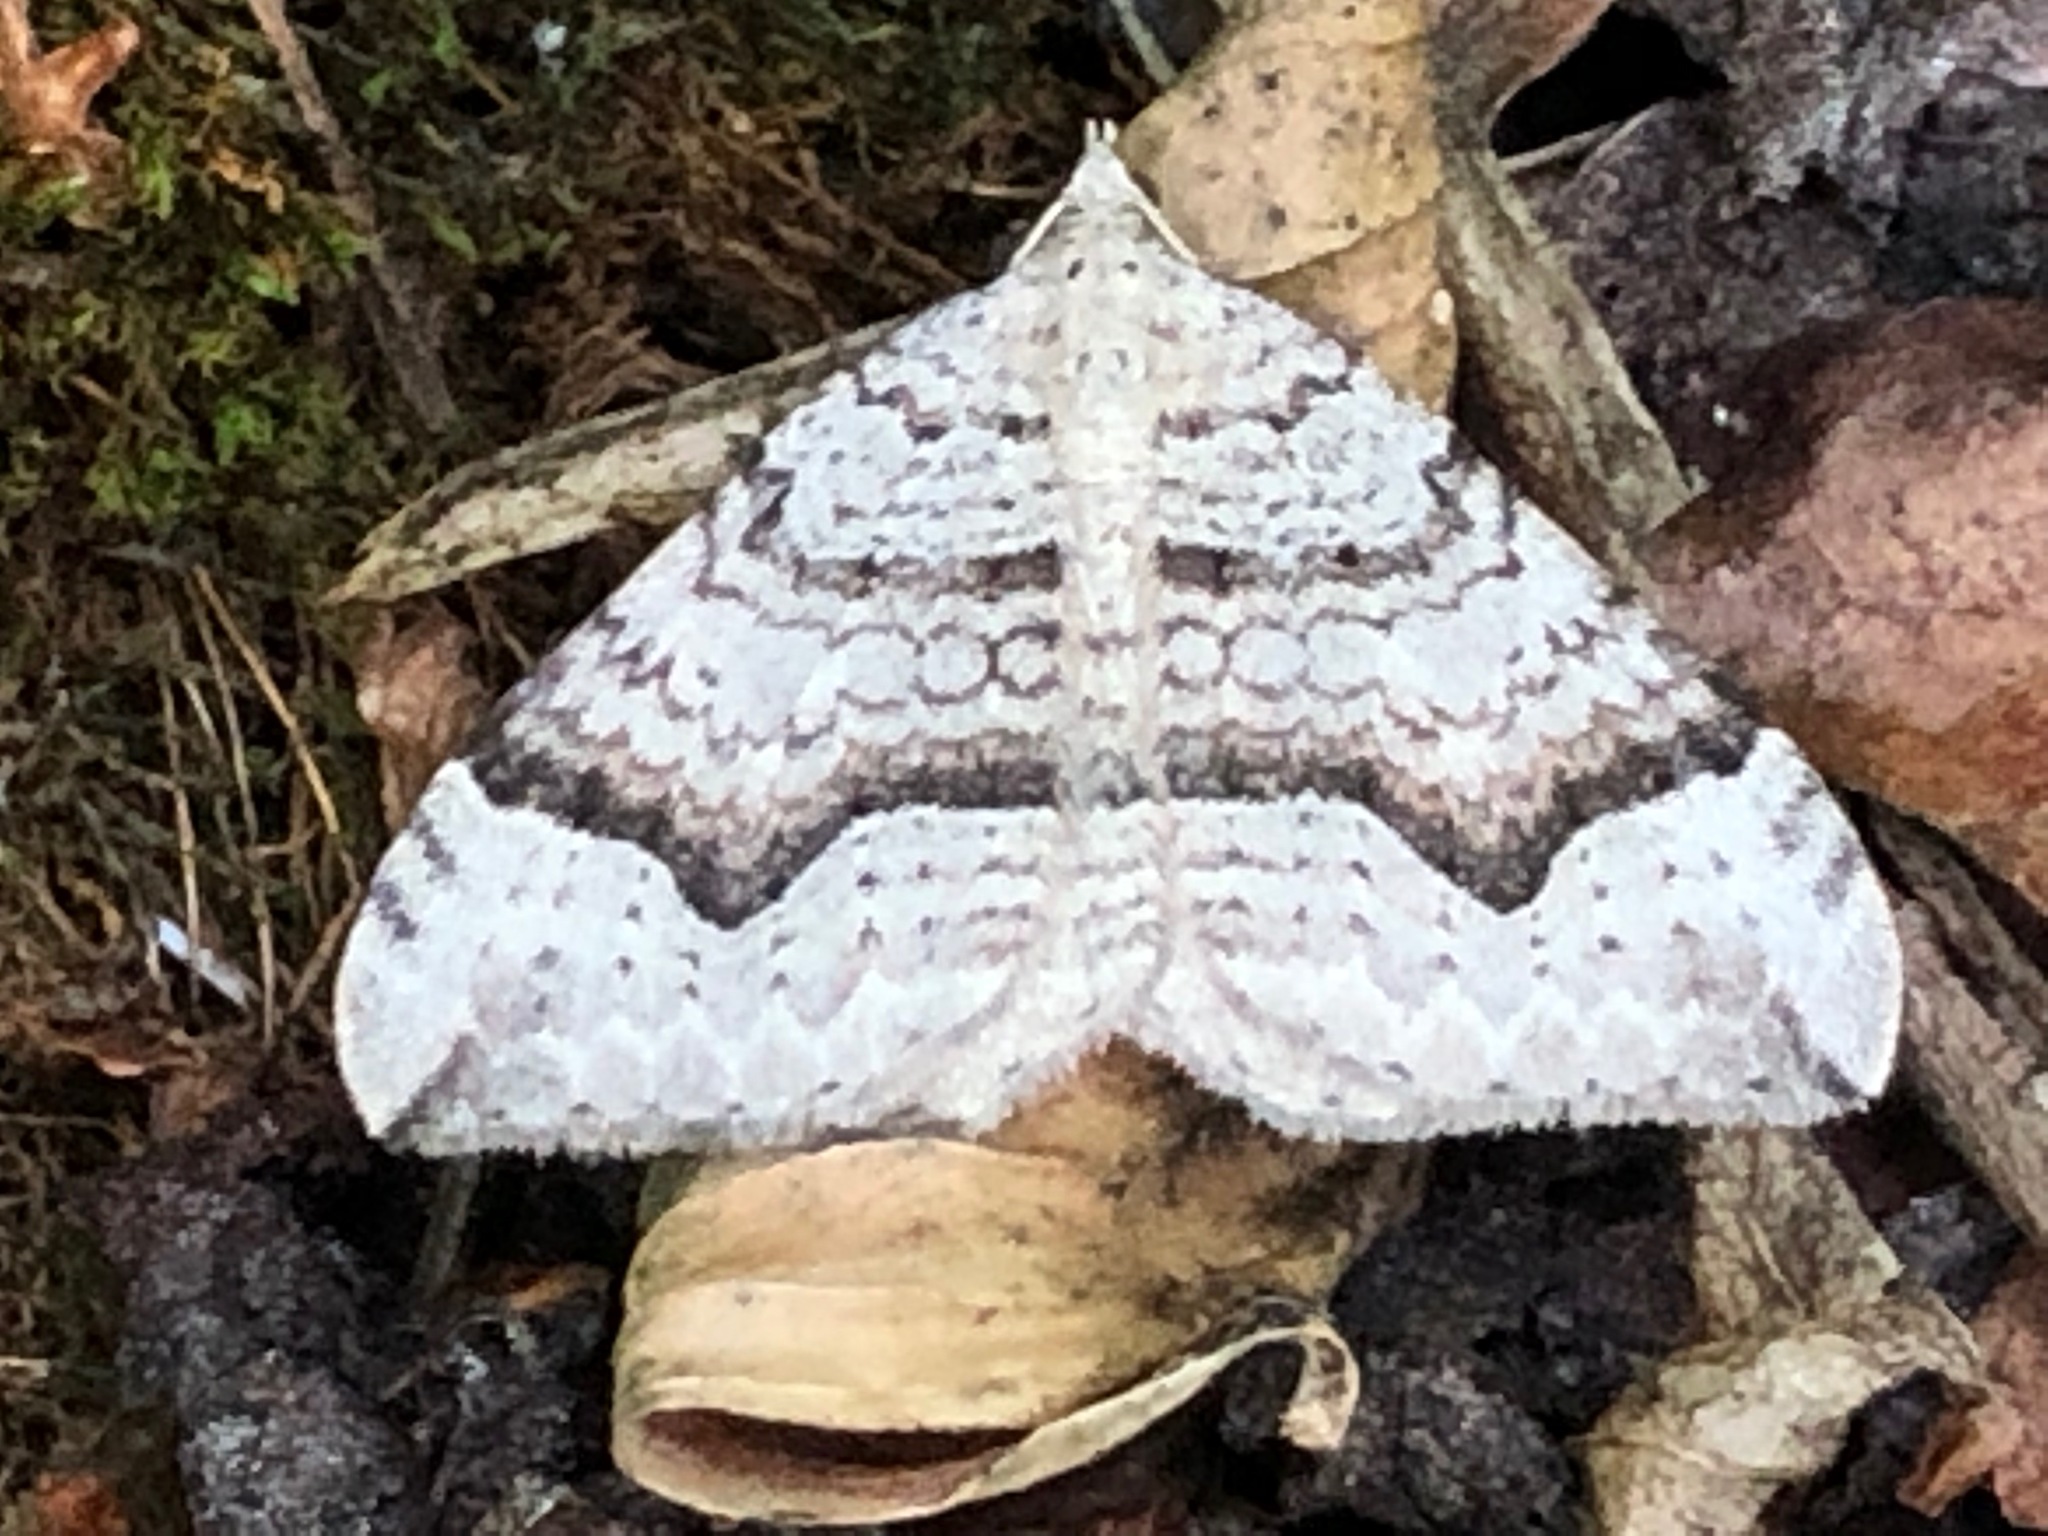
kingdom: Animalia
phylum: Arthropoda
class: Insecta
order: Lepidoptera
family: Geometridae
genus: Zenophleps
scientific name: Zenophleps alpinata
